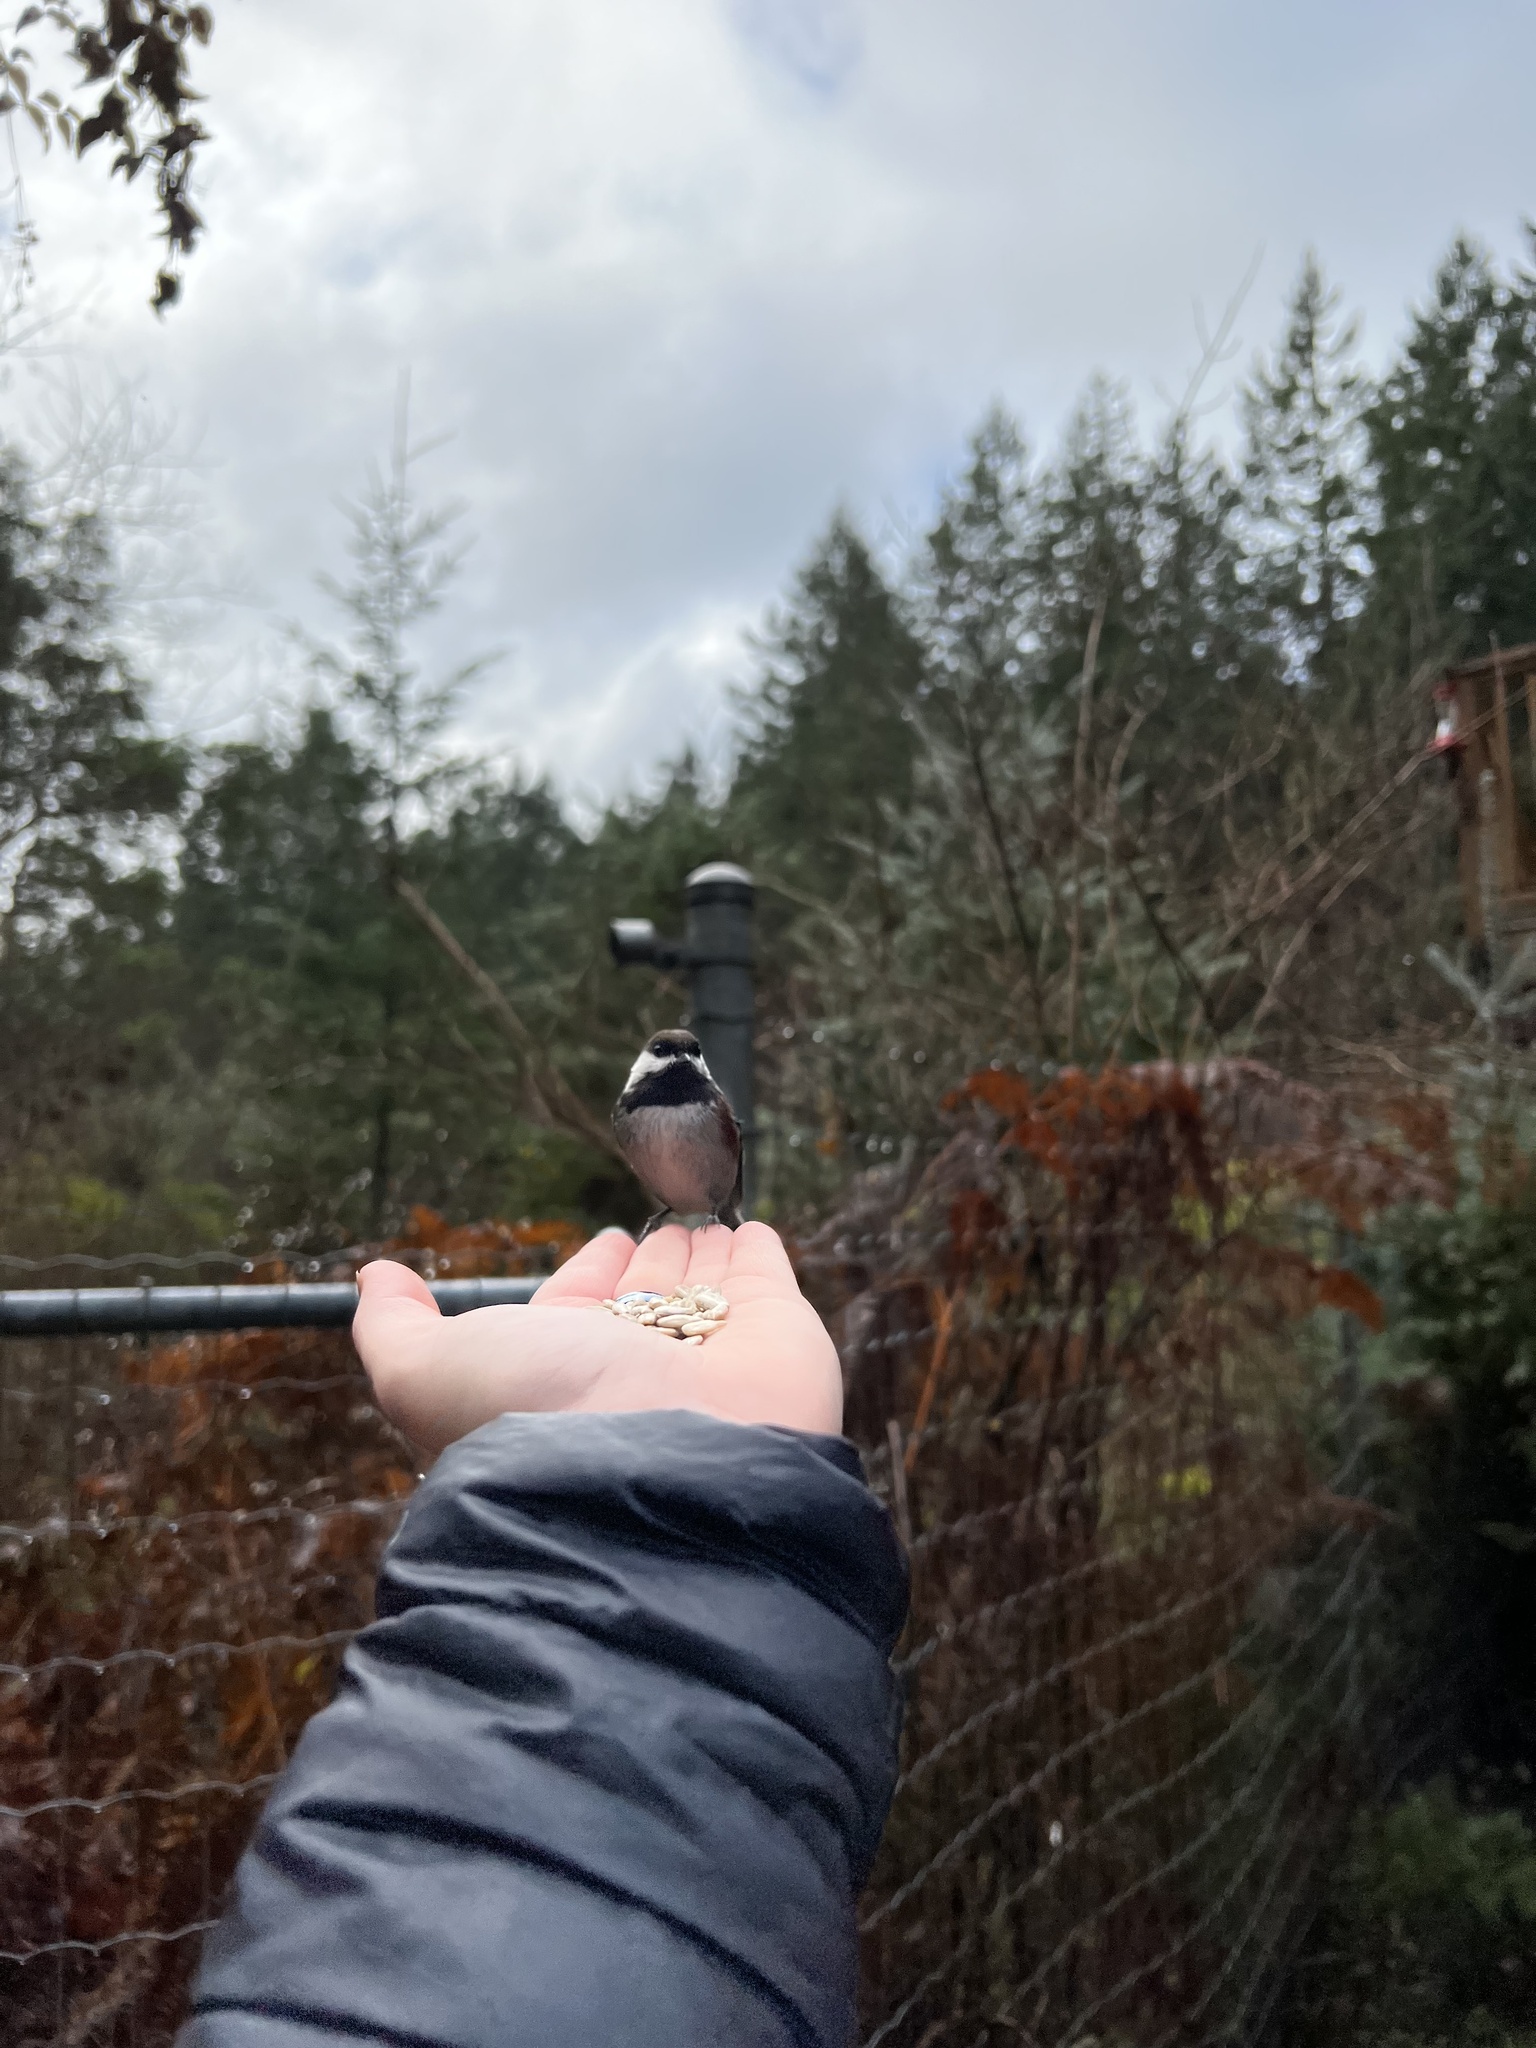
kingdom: Animalia
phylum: Chordata
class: Aves
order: Passeriformes
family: Paridae
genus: Poecile
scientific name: Poecile rufescens
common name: Chestnut-backed chickadee
